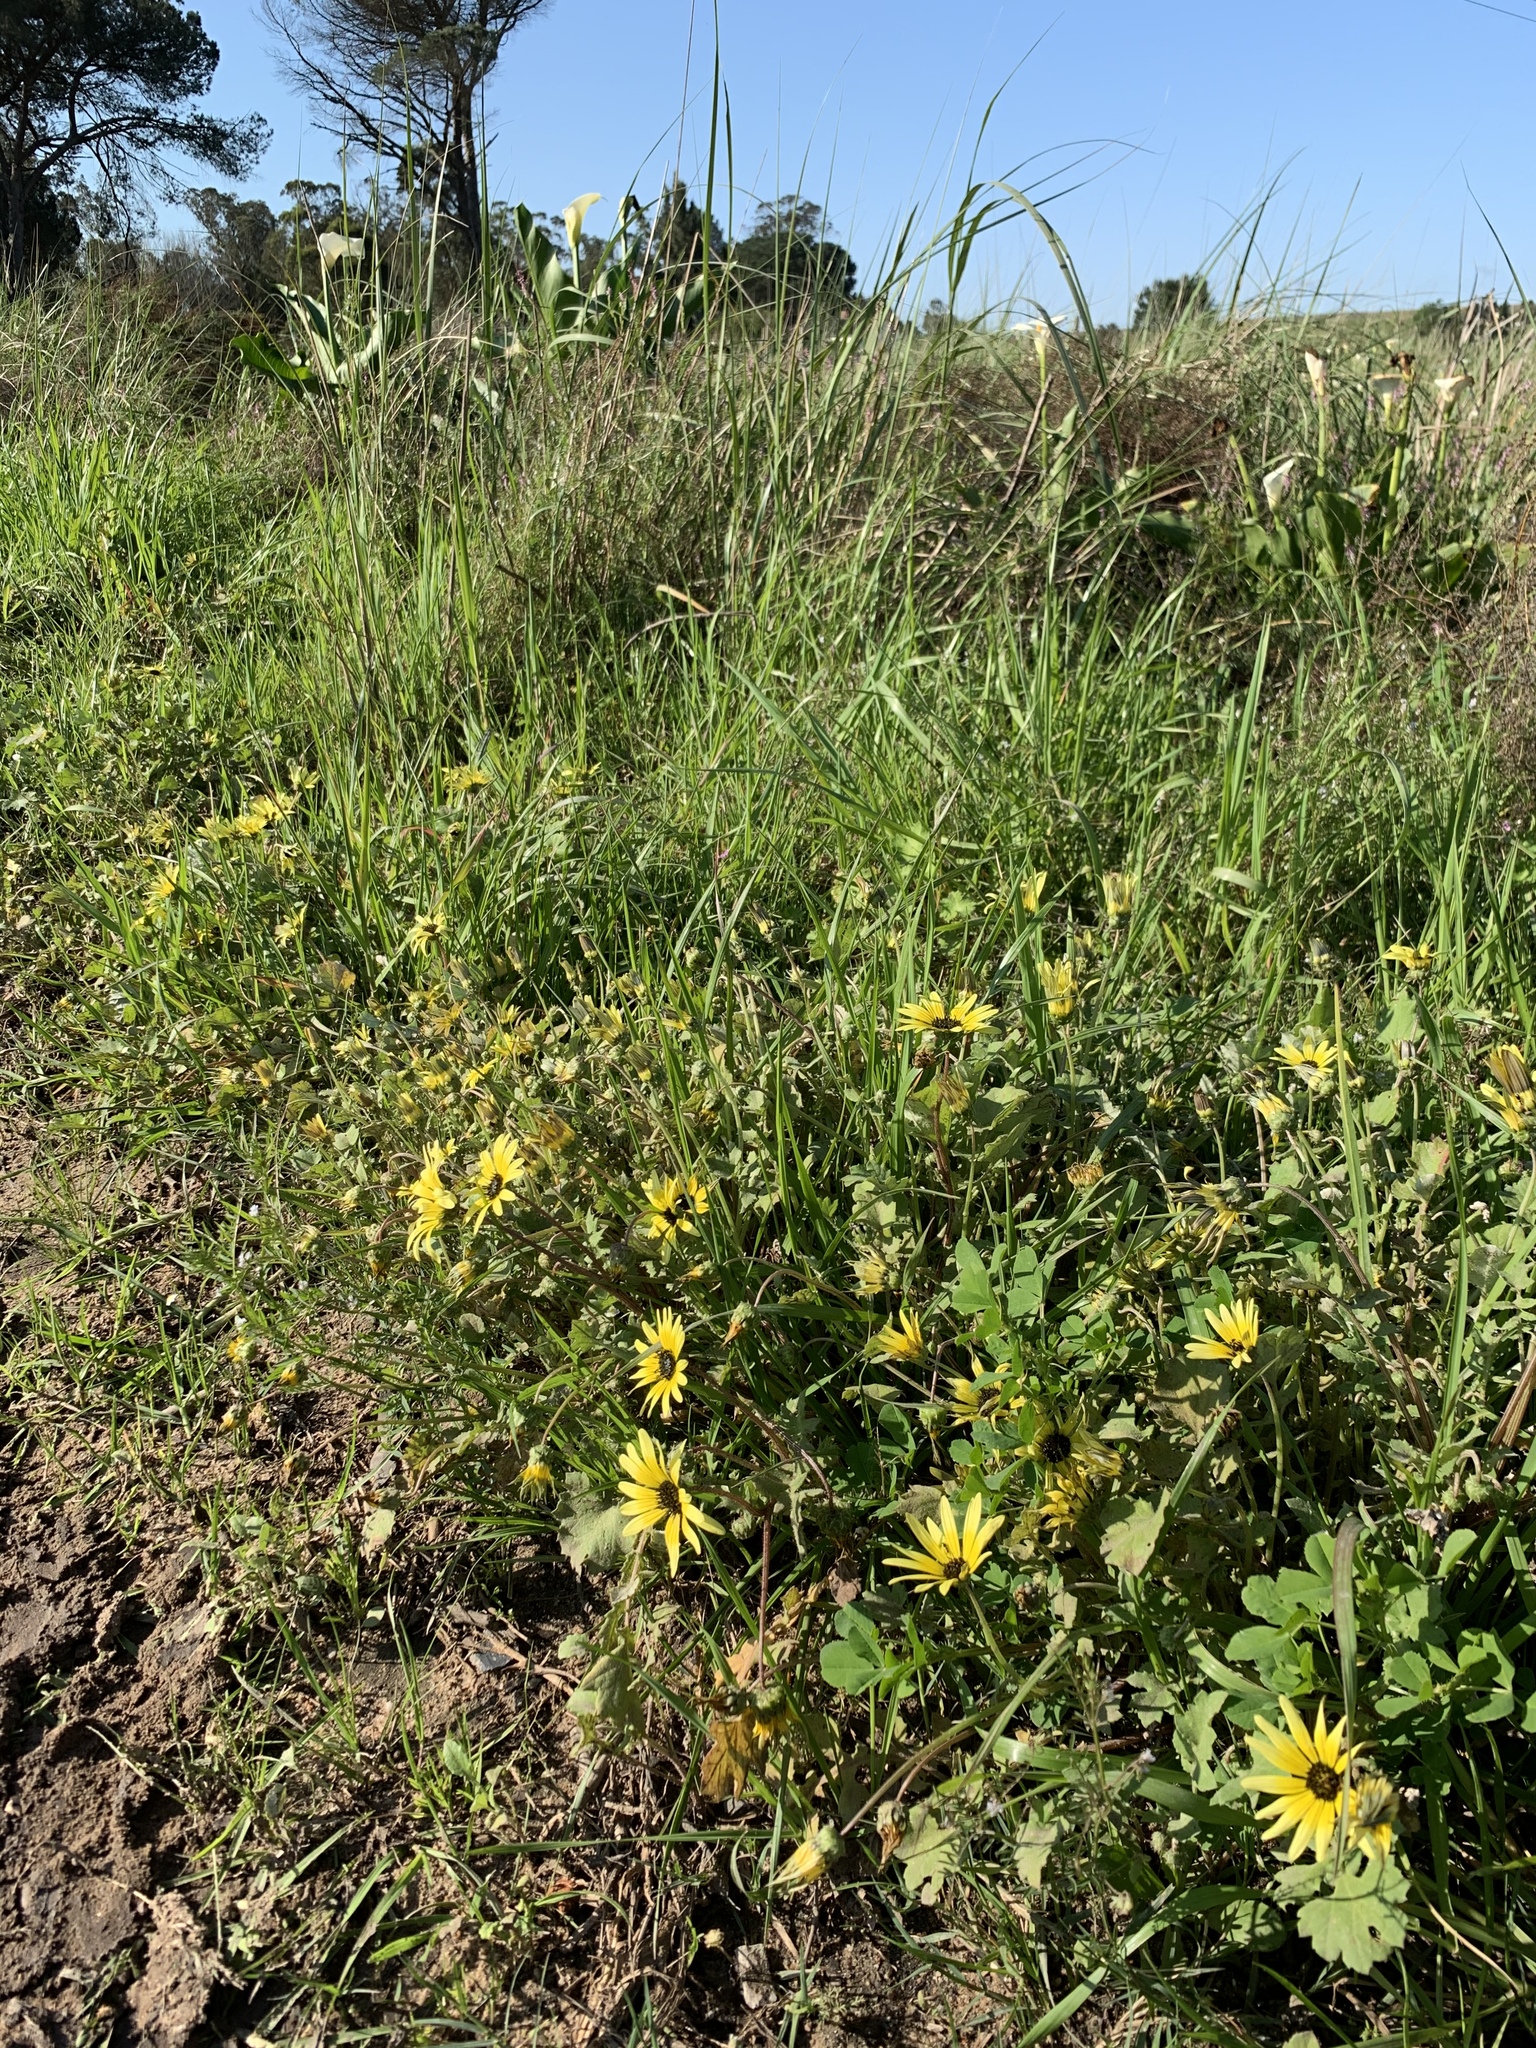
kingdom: Plantae
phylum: Tracheophyta
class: Magnoliopsida
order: Asterales
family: Asteraceae
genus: Arctotheca
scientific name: Arctotheca calendula
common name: Capeweed
